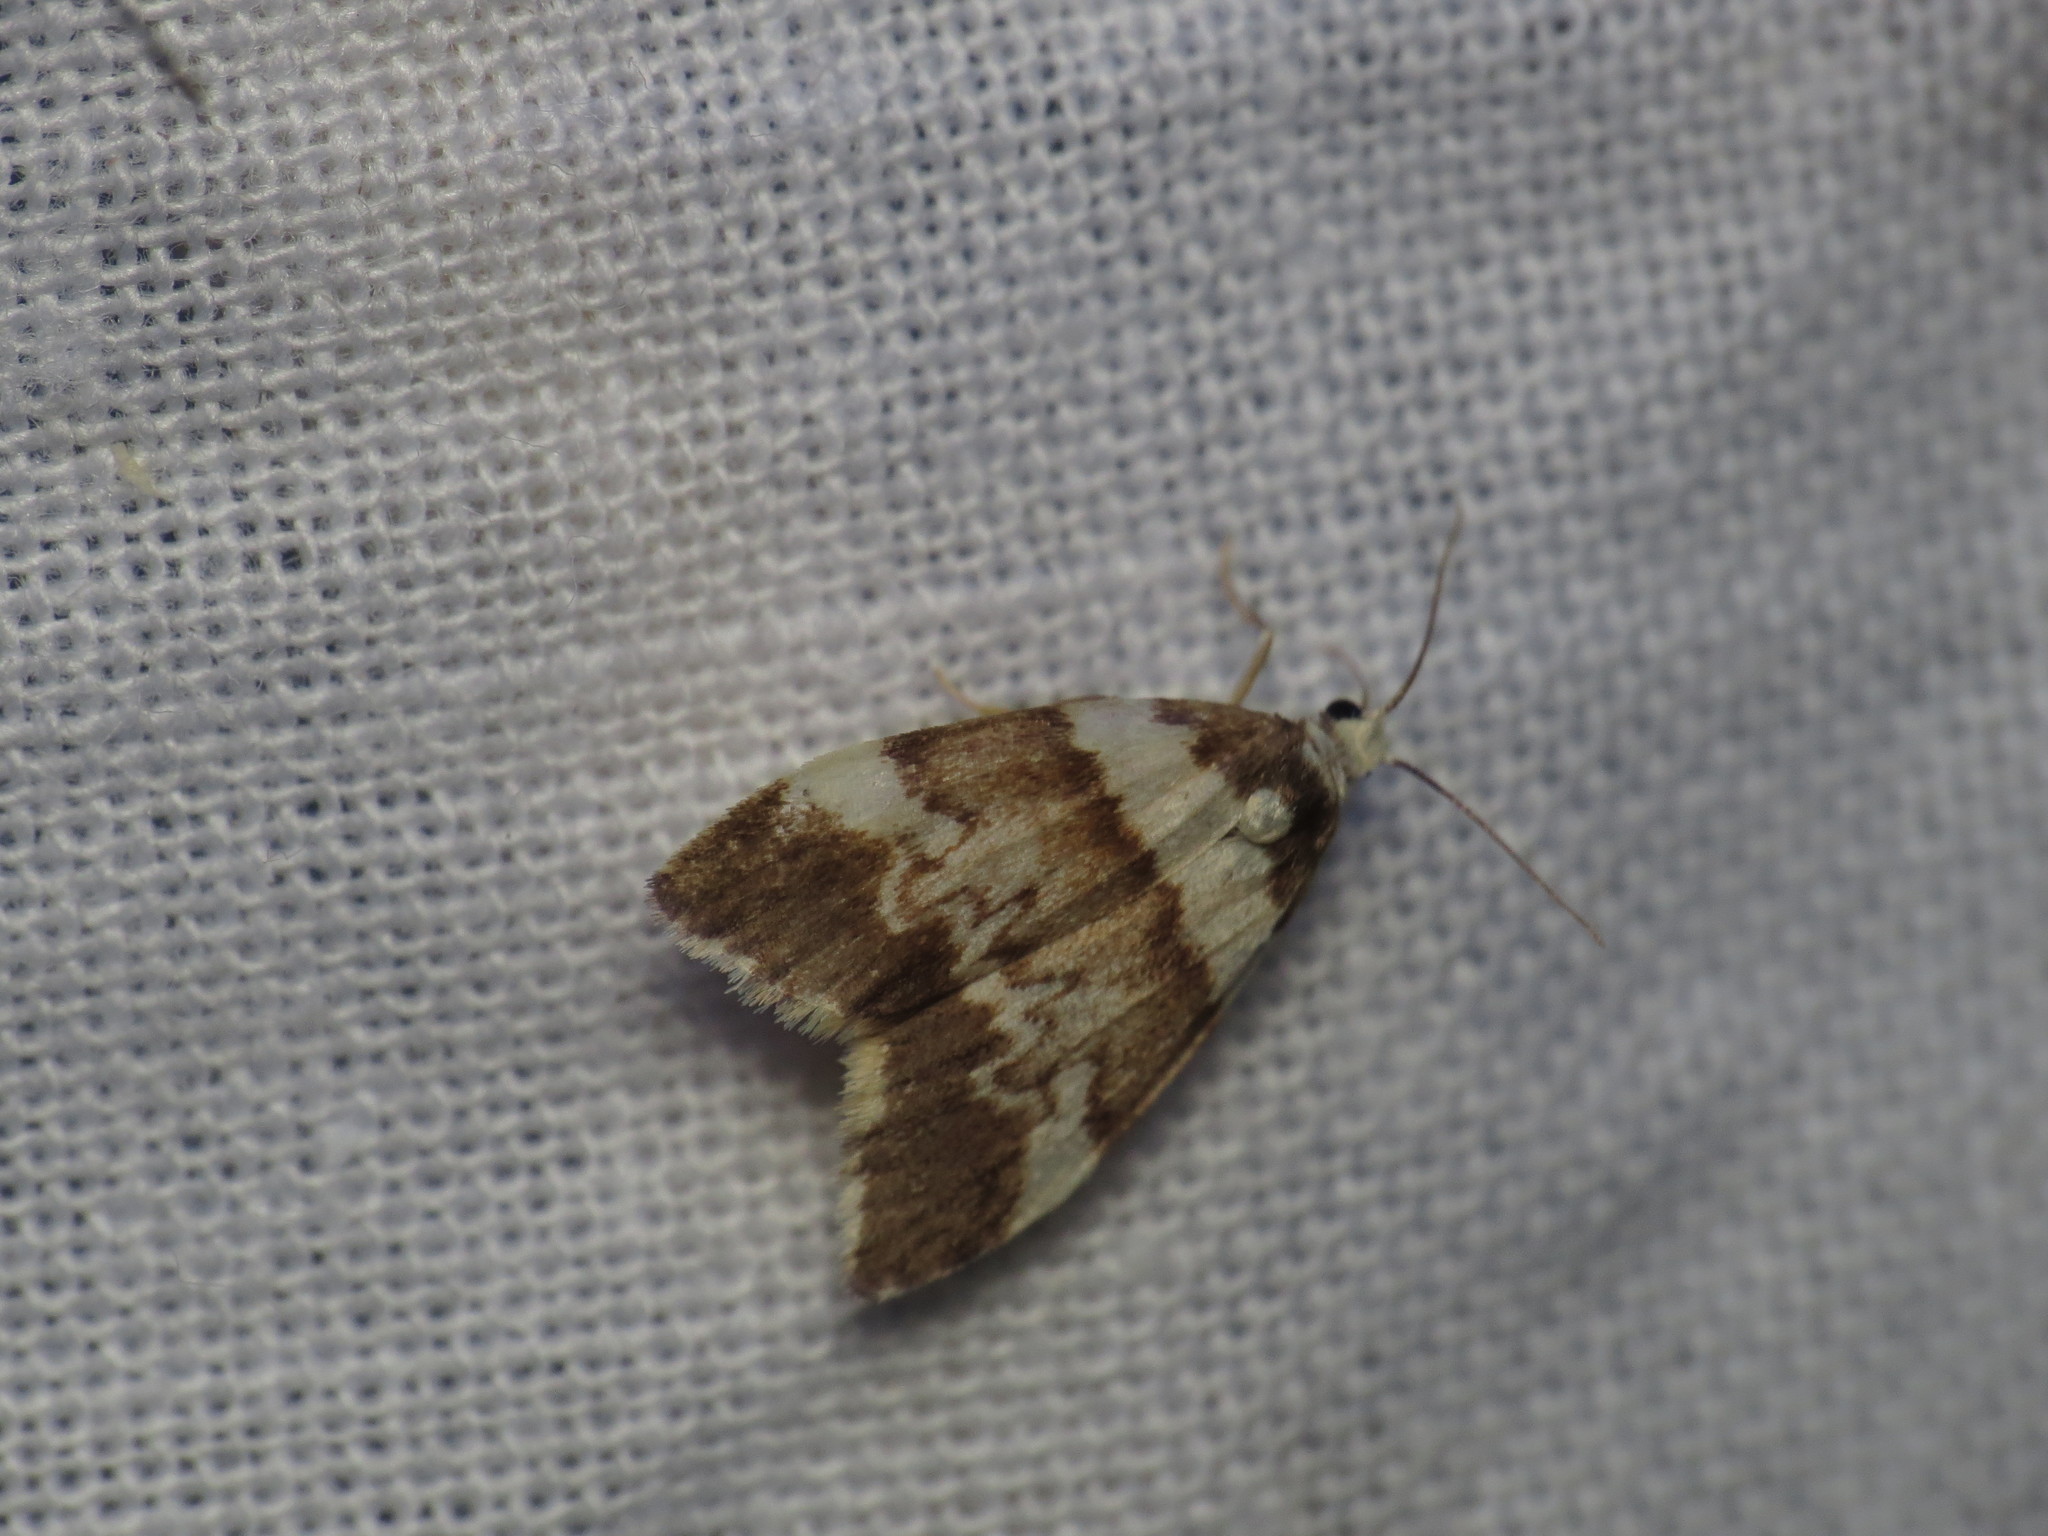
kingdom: Animalia
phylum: Arthropoda
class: Insecta
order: Lepidoptera
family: Erebidae
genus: Halone
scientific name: Halone sejuncta
